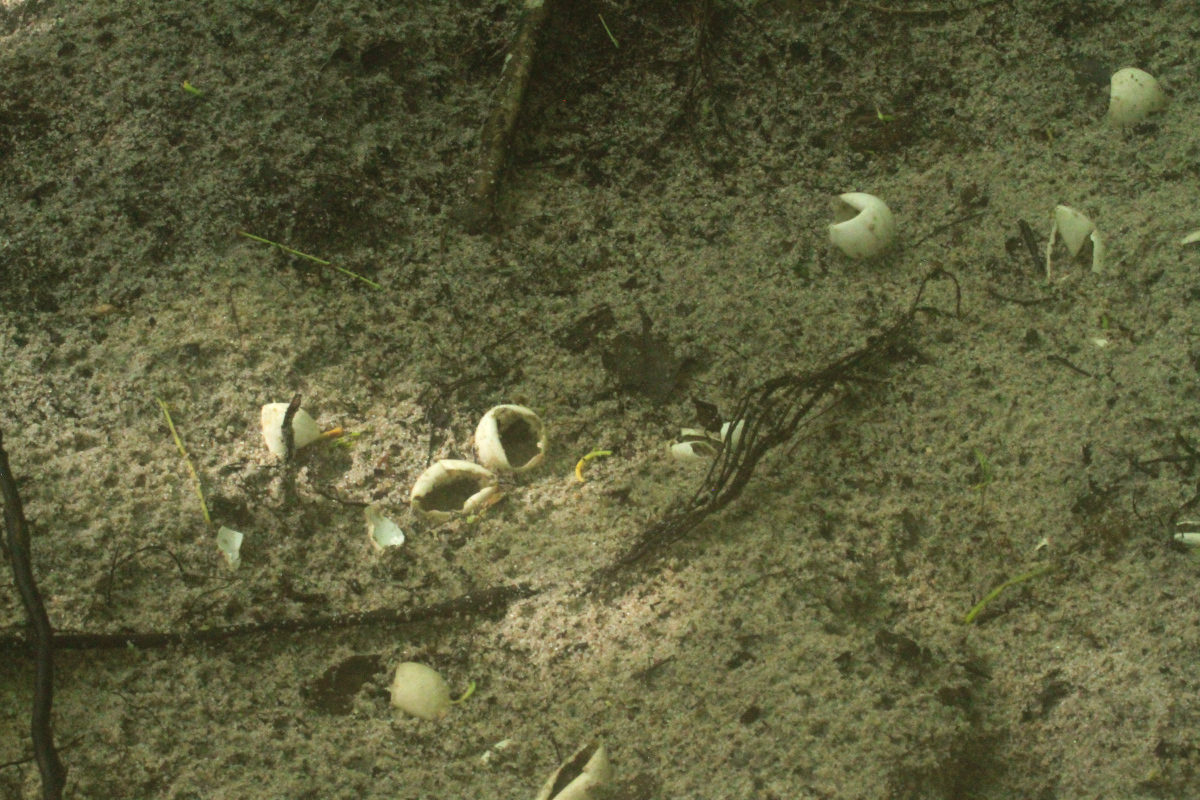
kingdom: Animalia
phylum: Chordata
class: Testudines
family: Chelydridae
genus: Chelydra
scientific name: Chelydra serpentina
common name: Common snapping turtle
